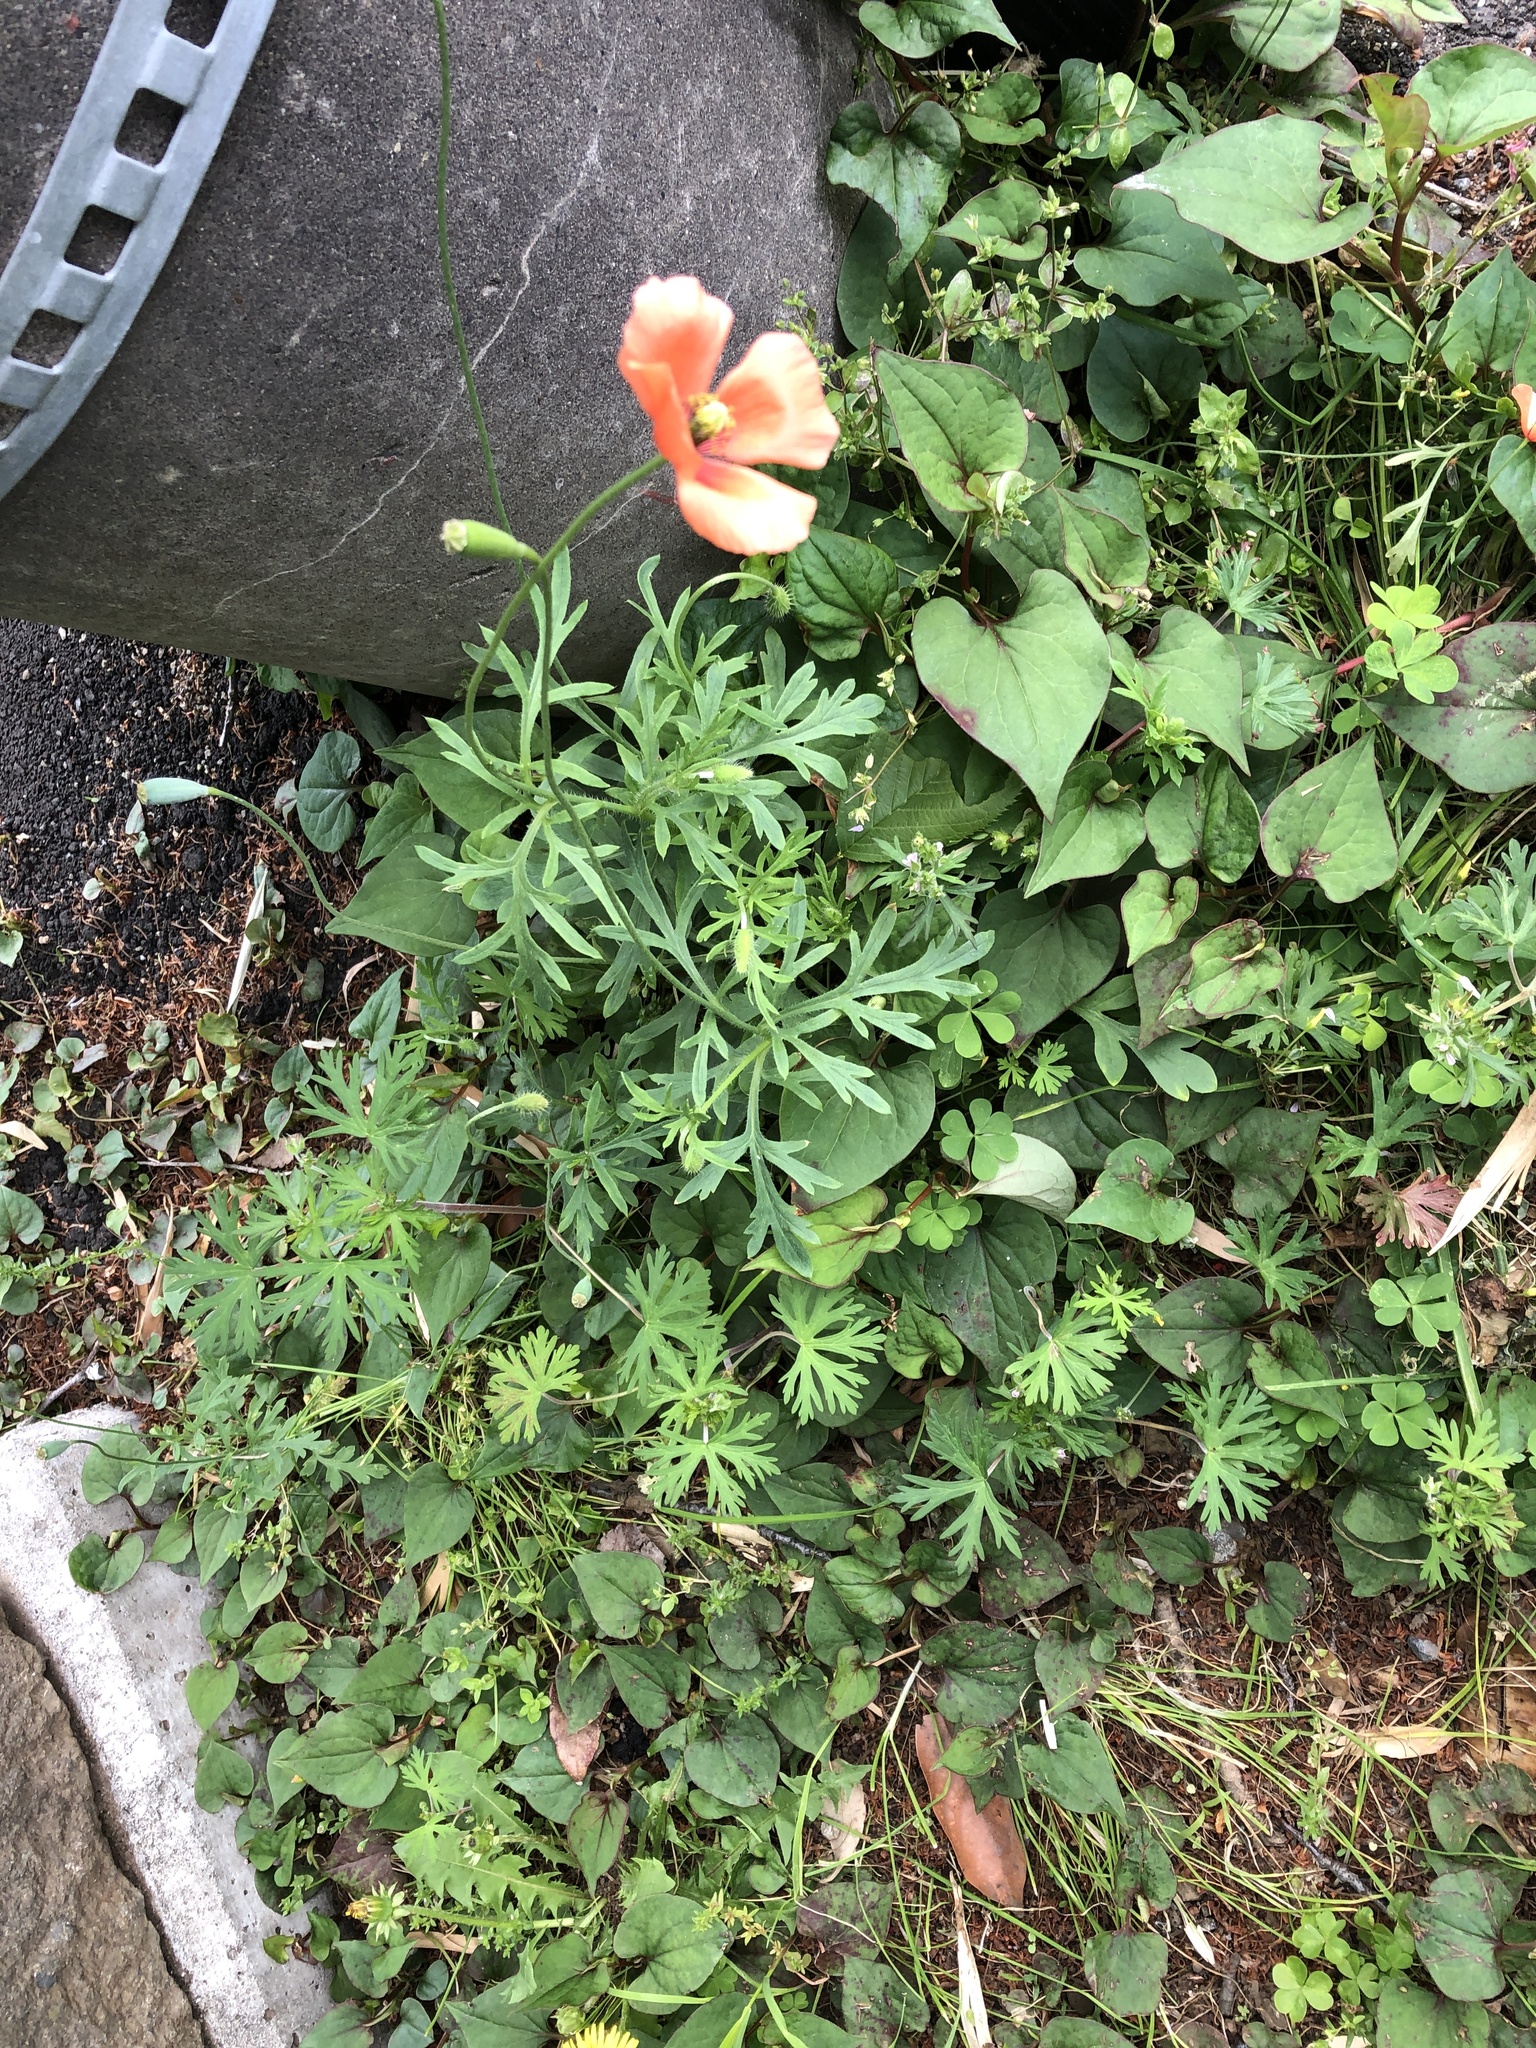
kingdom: Plantae
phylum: Tracheophyta
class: Magnoliopsida
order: Ranunculales
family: Papaveraceae
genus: Papaver
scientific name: Papaver dubium
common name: Long-headed poppy
